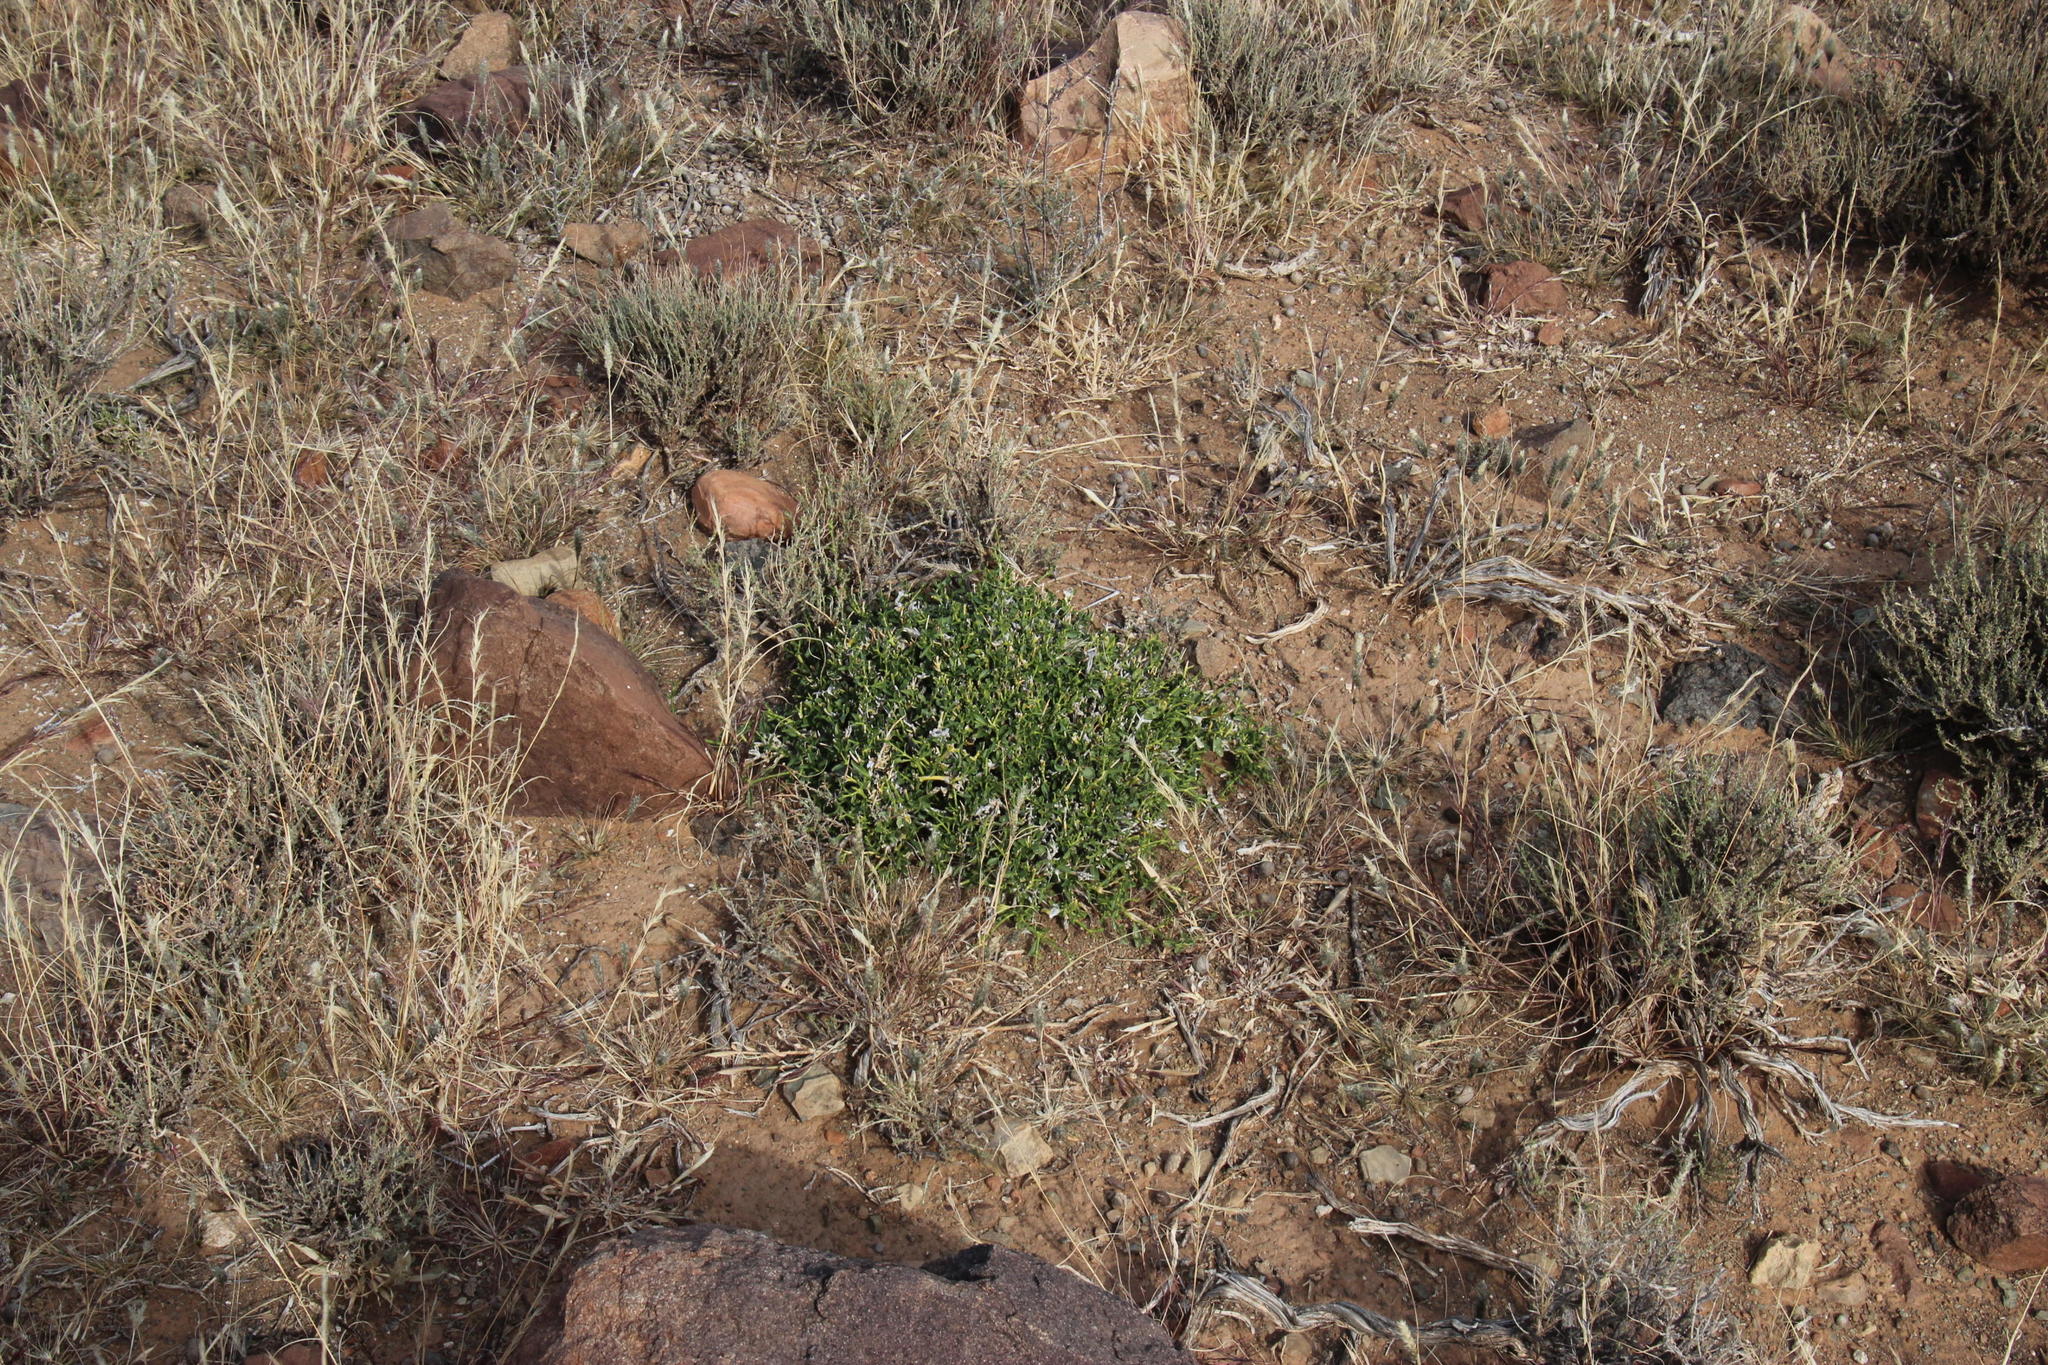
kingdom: Plantae
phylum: Tracheophyta
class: Magnoliopsida
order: Lamiales
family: Acanthaceae
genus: Pogonospermum
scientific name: Pogonospermum
